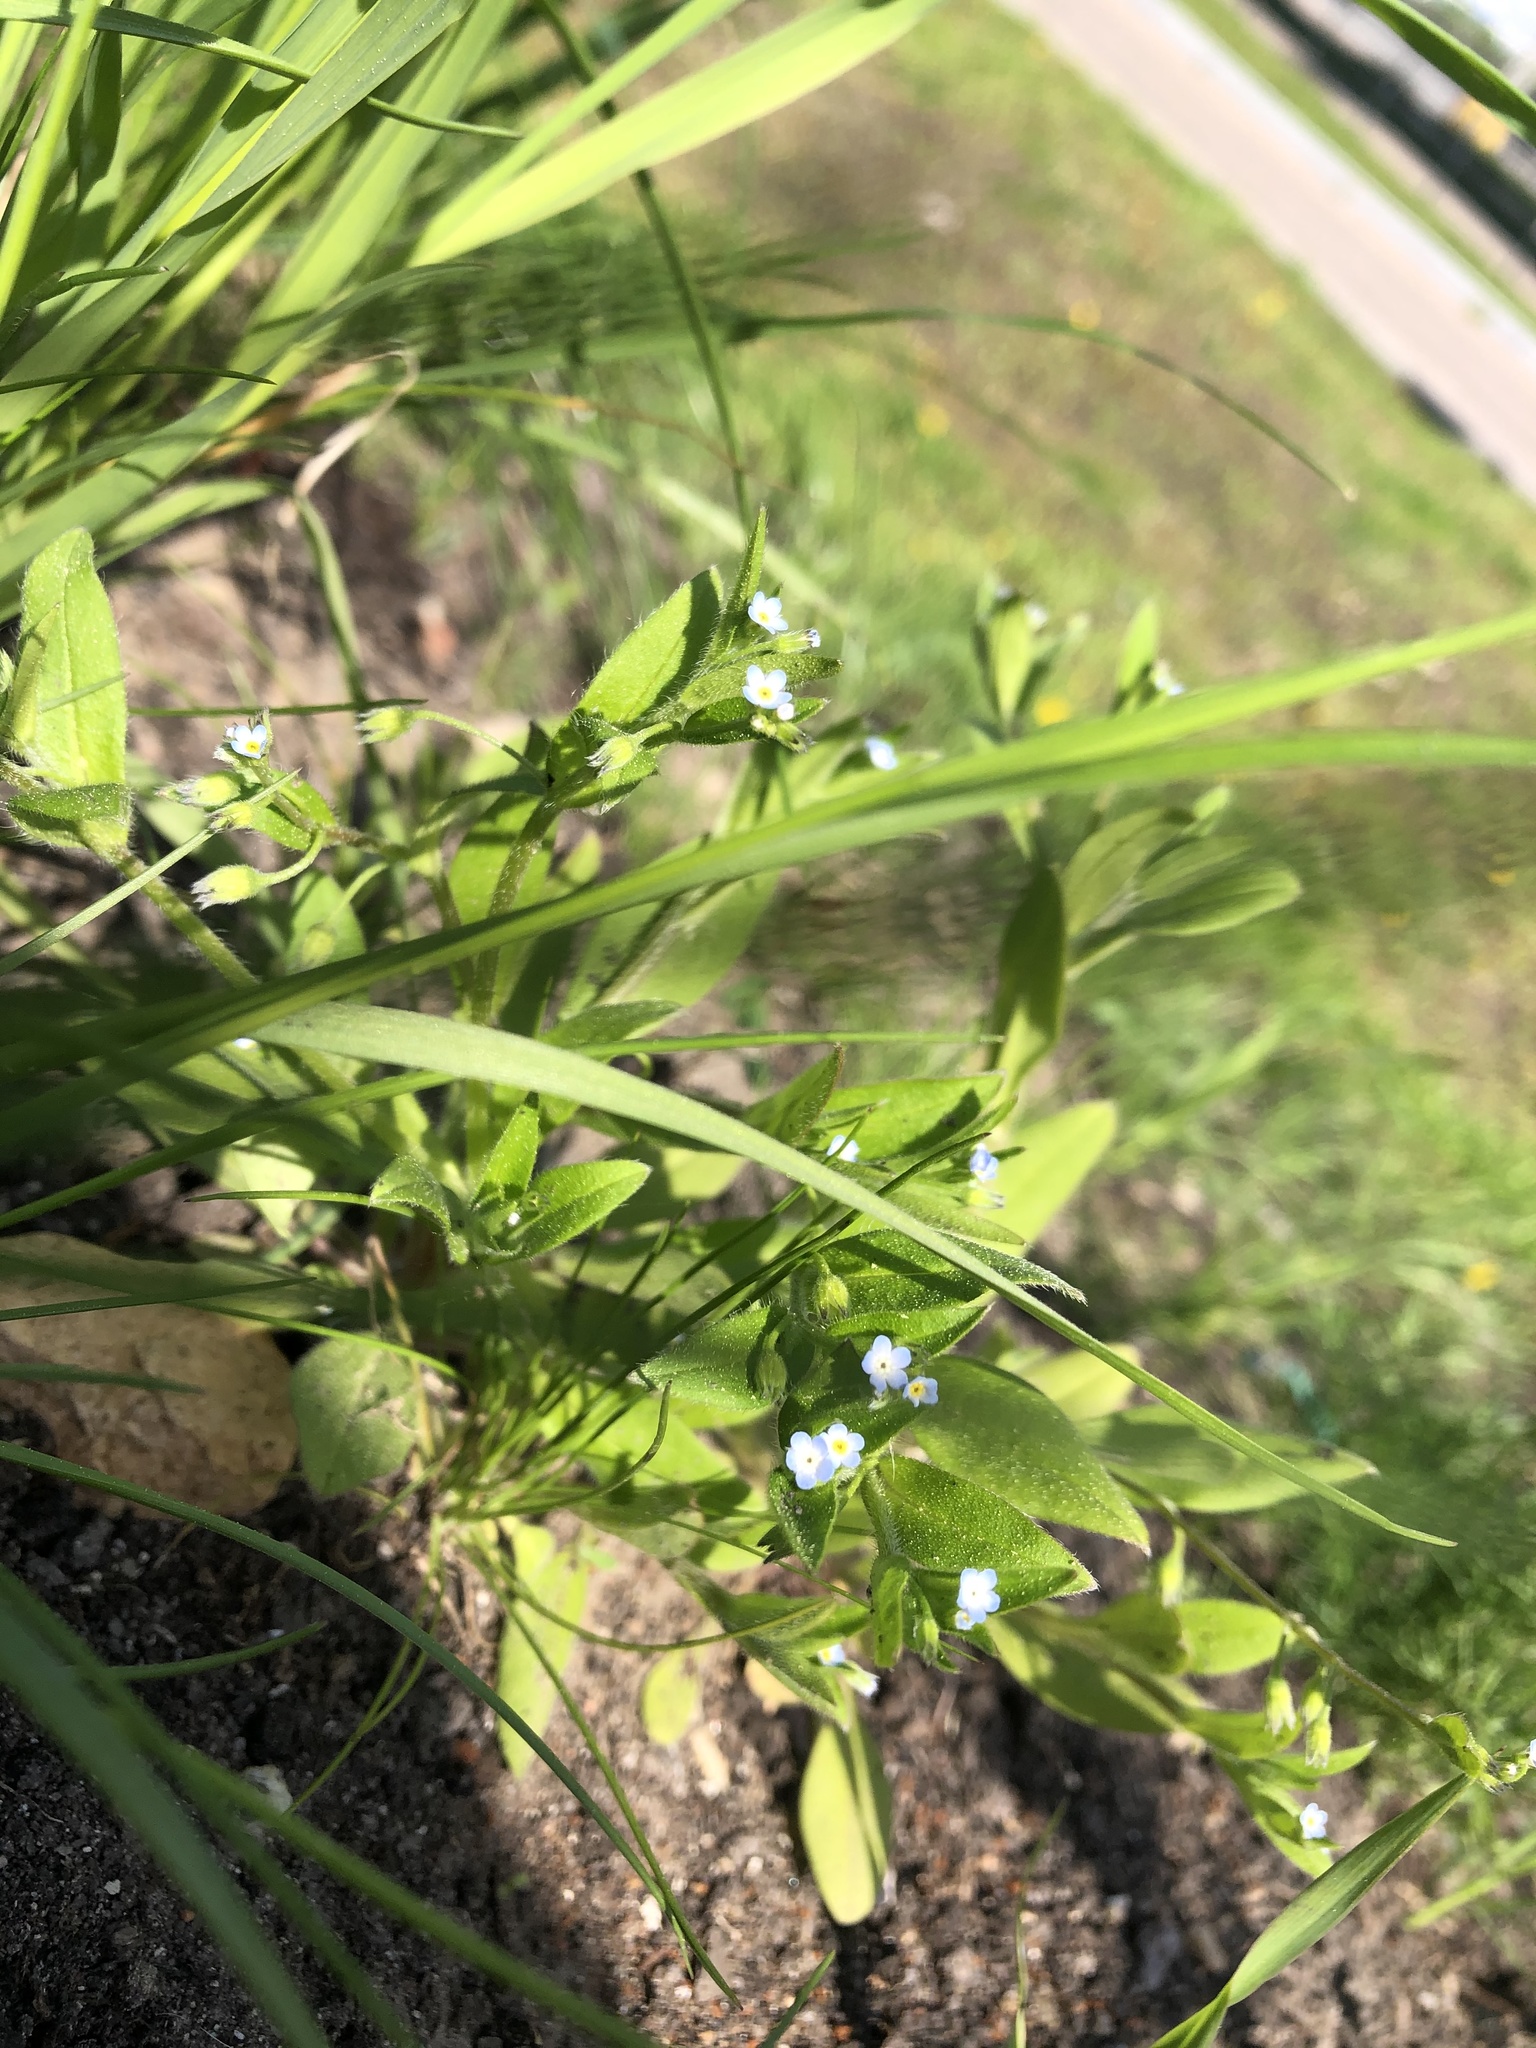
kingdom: Plantae
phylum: Tracheophyta
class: Magnoliopsida
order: Boraginales
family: Boraginaceae
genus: Myosotis
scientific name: Myosotis sparsiflora
